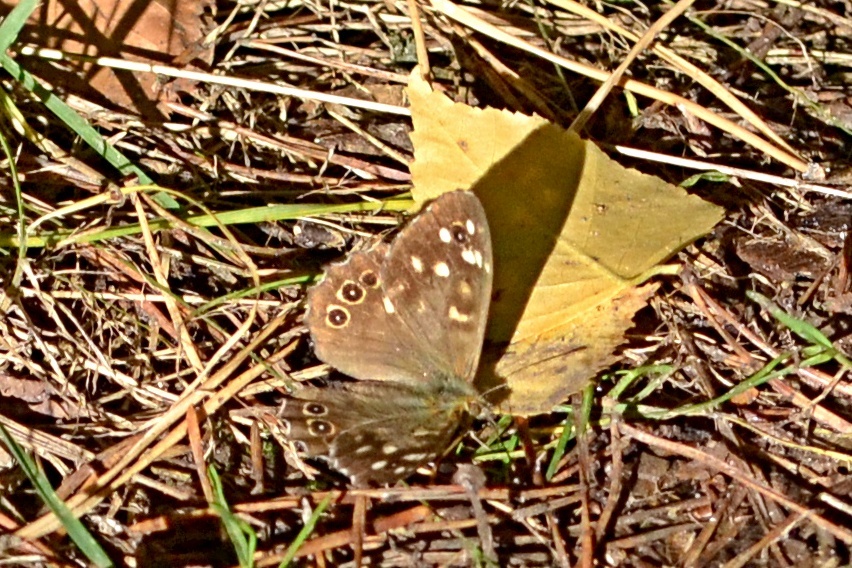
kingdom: Animalia
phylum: Arthropoda
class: Insecta
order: Lepidoptera
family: Nymphalidae
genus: Pararge
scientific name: Pararge aegeria
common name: Speckled wood
